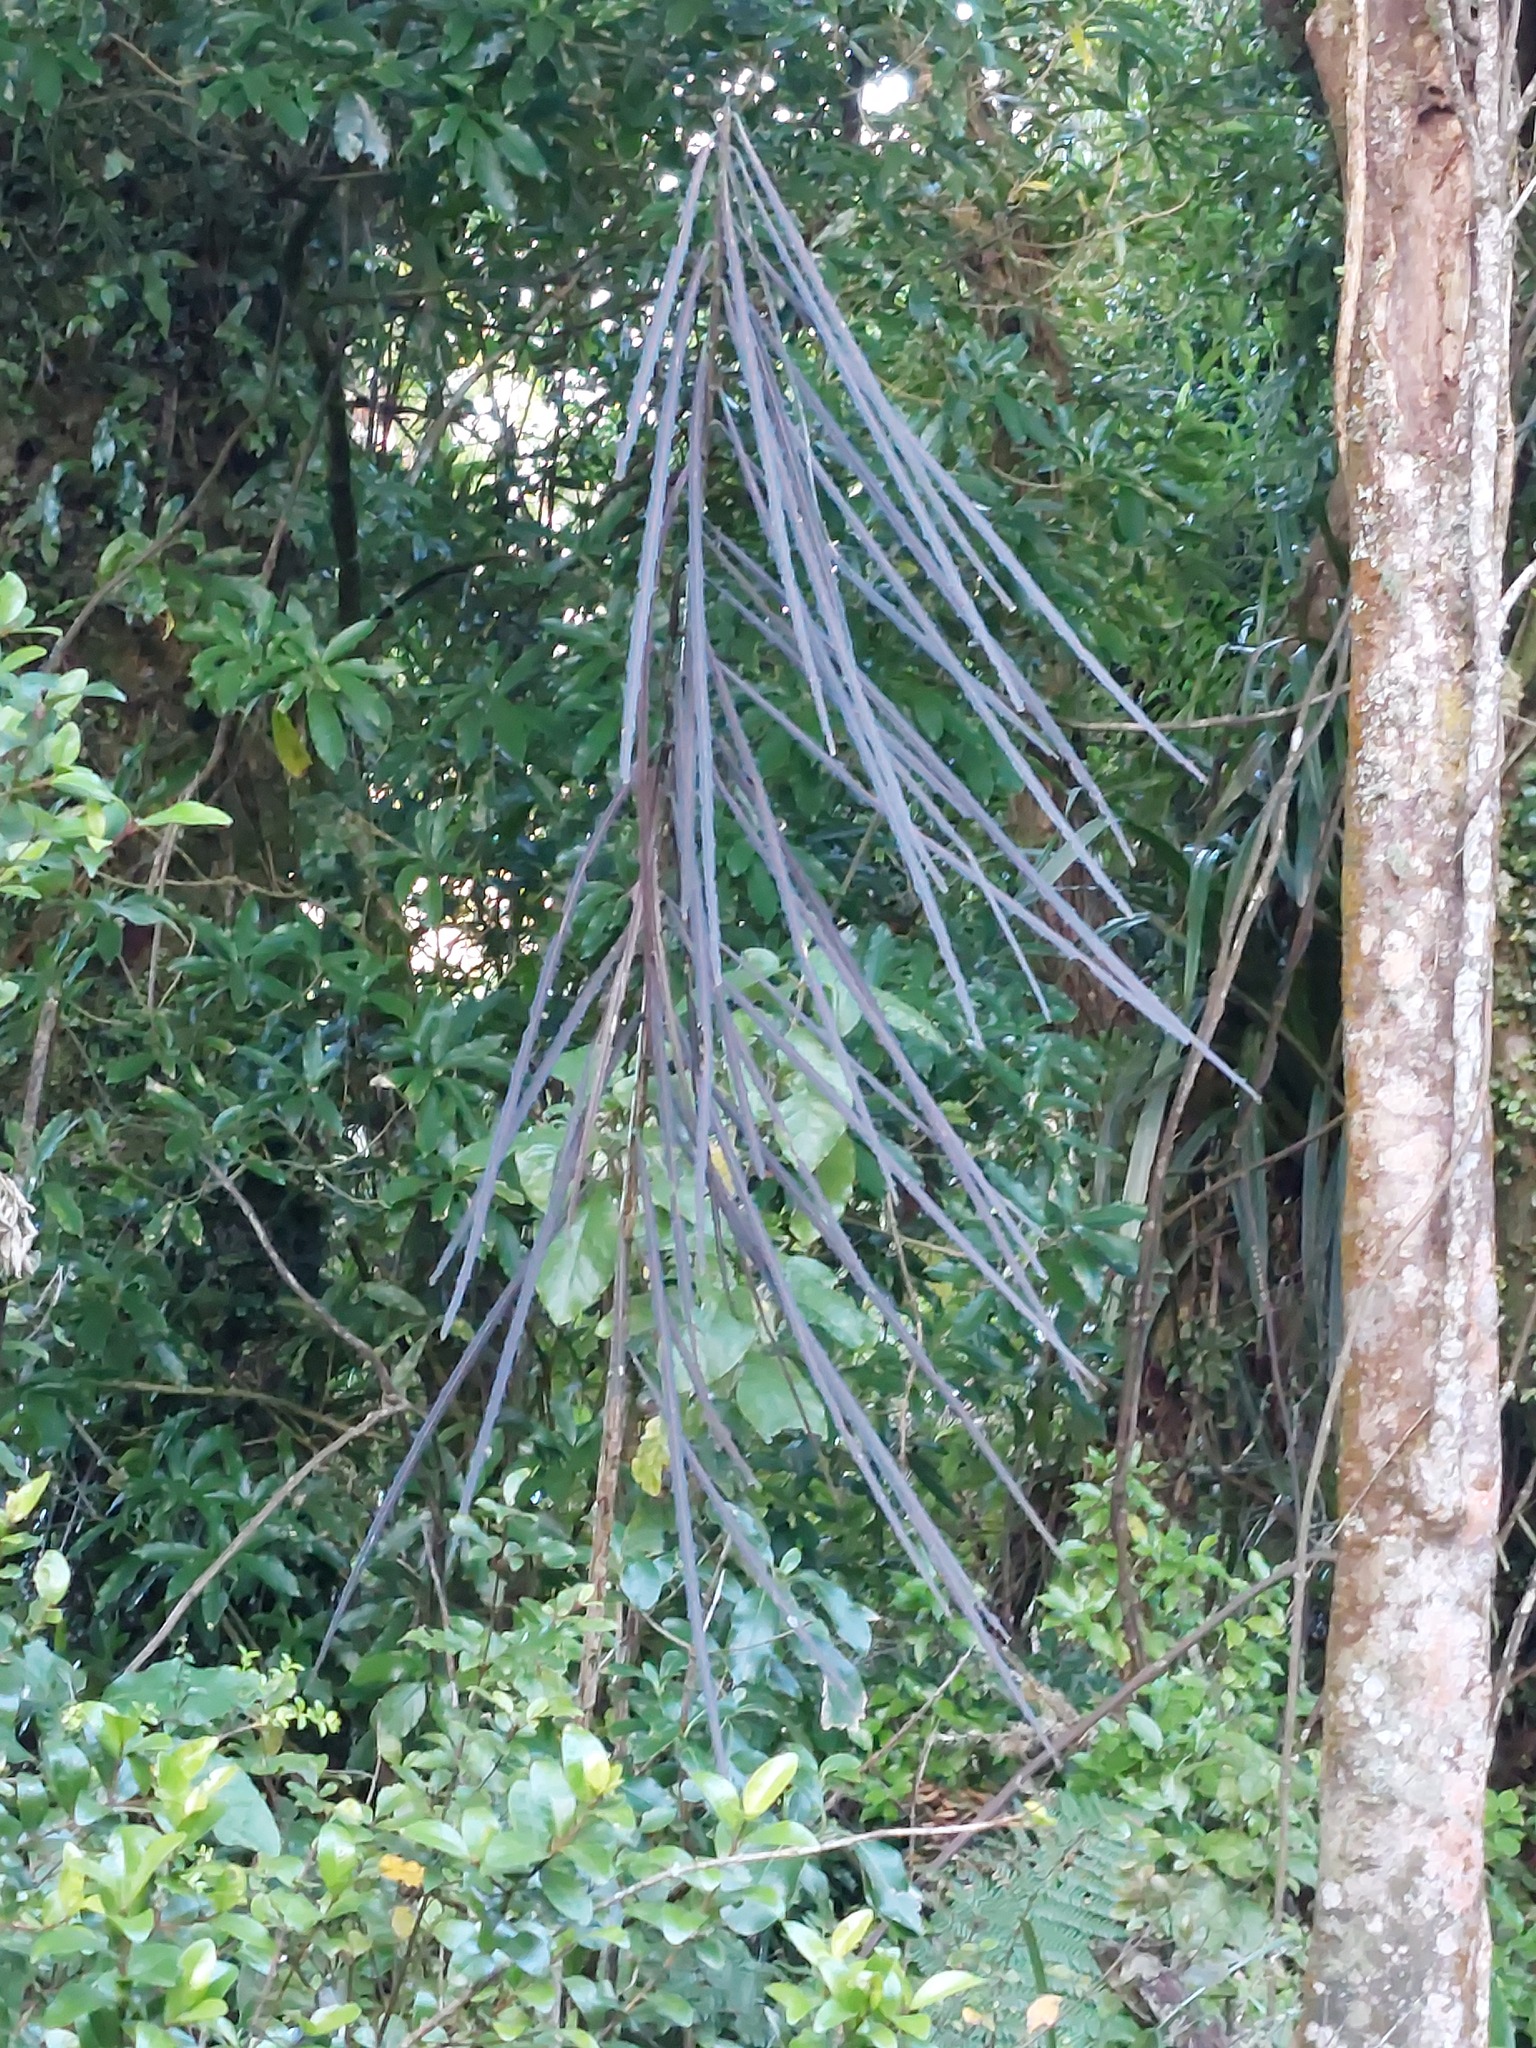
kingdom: Plantae
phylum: Tracheophyta
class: Magnoliopsida
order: Apiales
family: Araliaceae
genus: Pseudopanax
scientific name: Pseudopanax crassifolius
